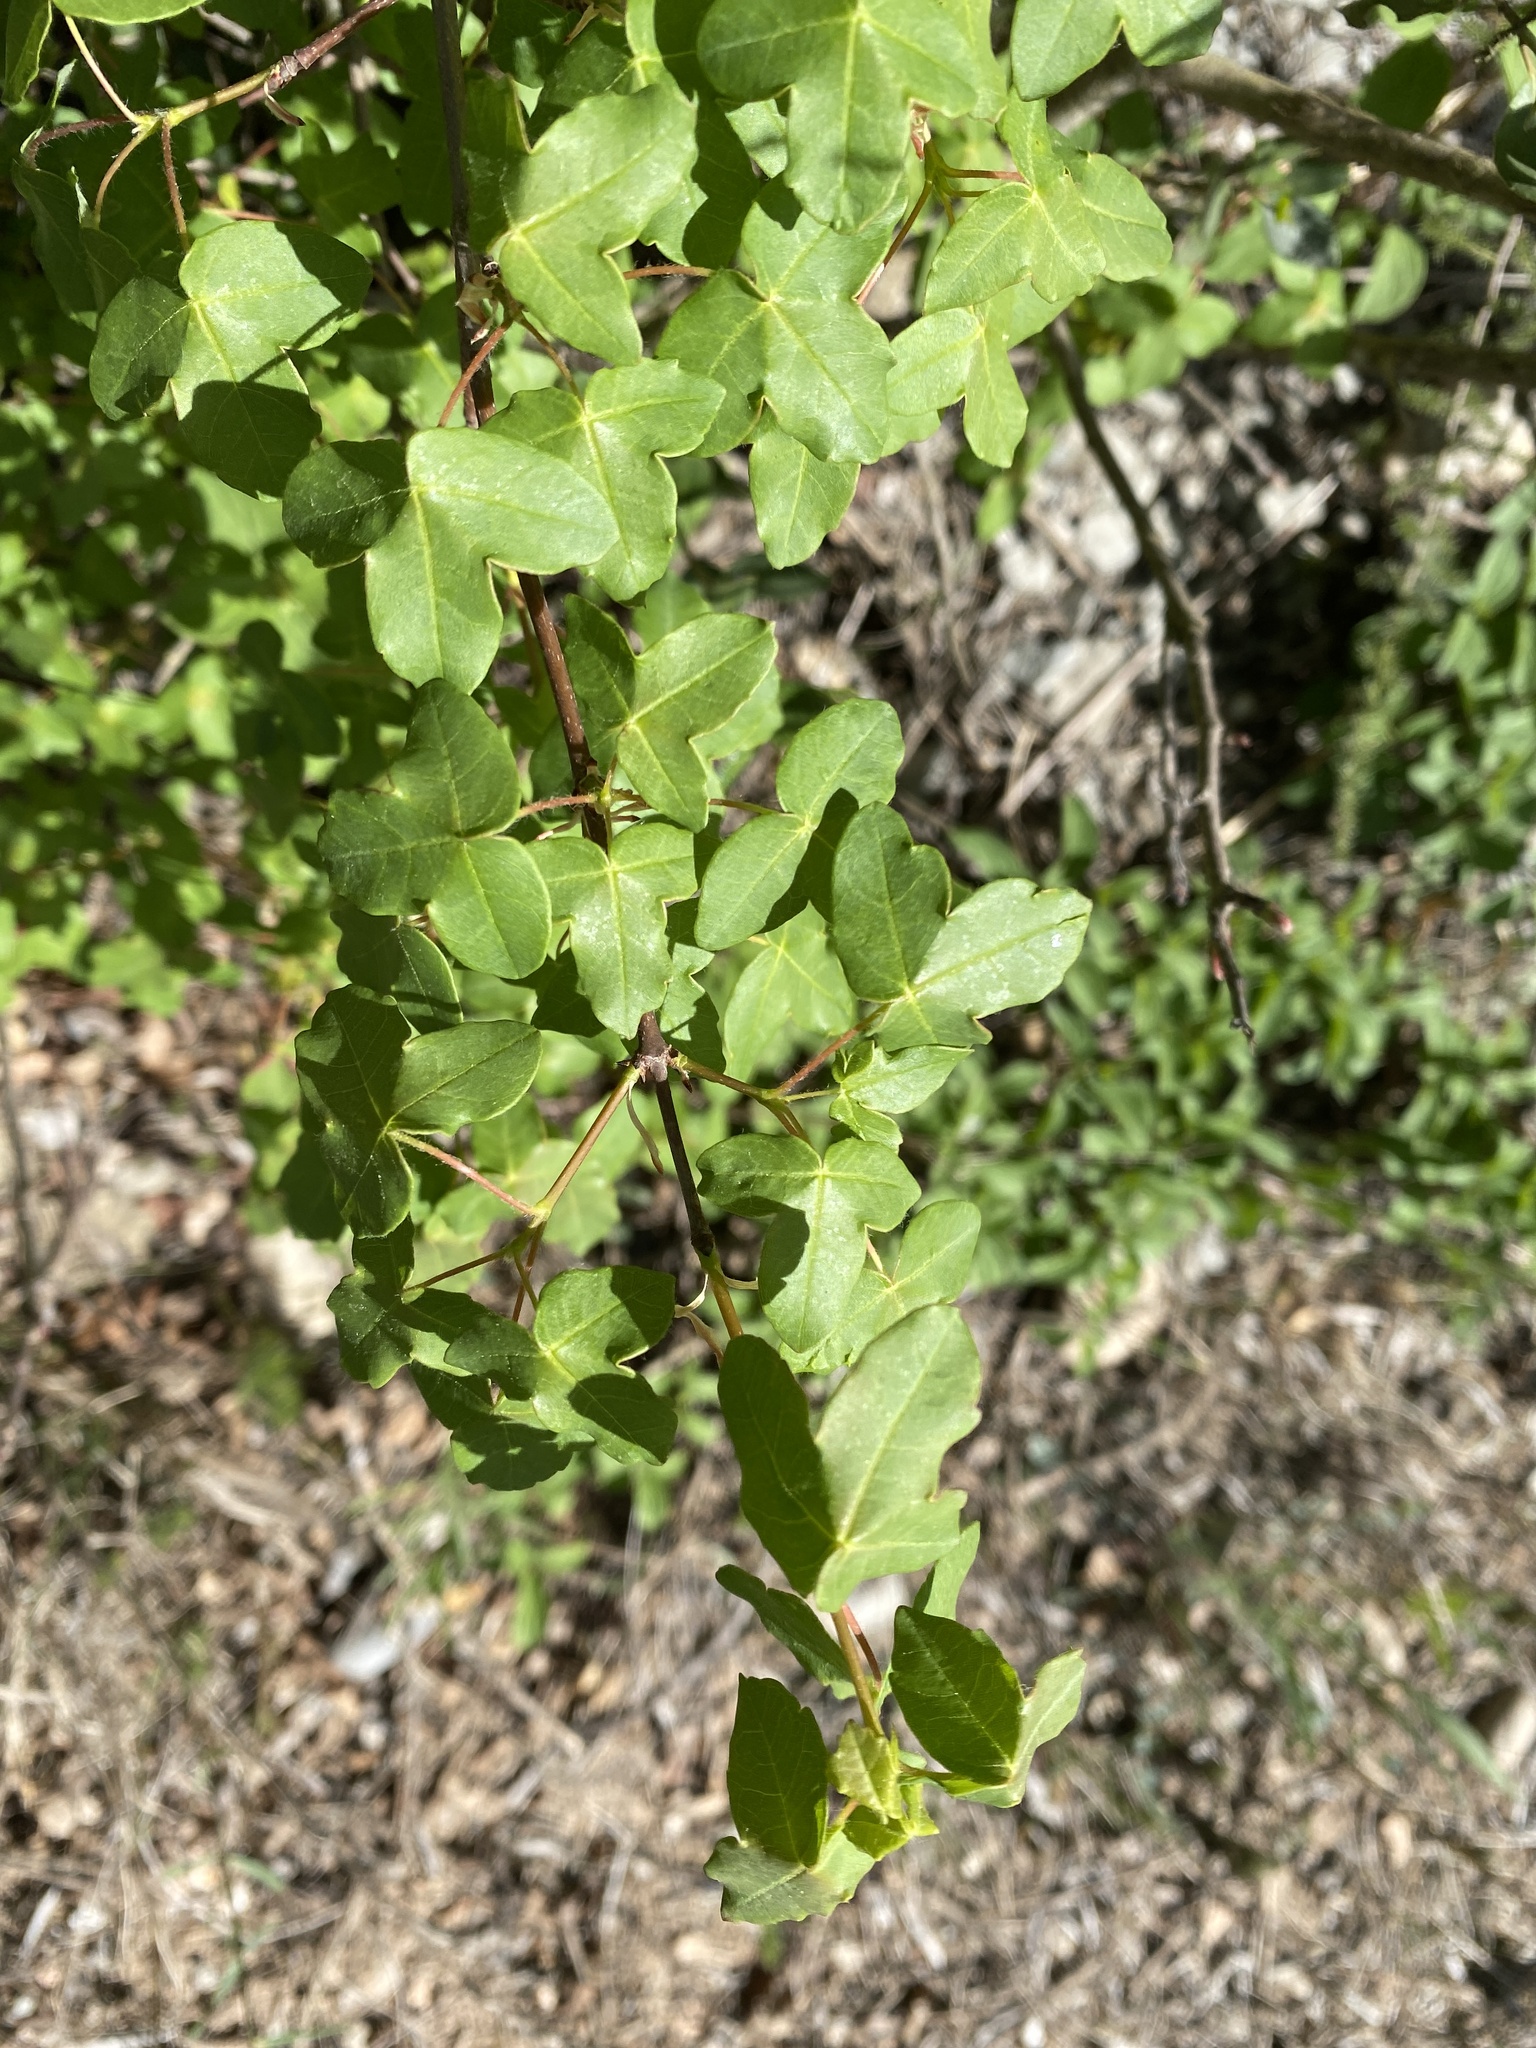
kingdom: Plantae
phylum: Tracheophyta
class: Magnoliopsida
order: Sapindales
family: Sapindaceae
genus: Acer
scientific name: Acer monspessulanum
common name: Montpellier maple
